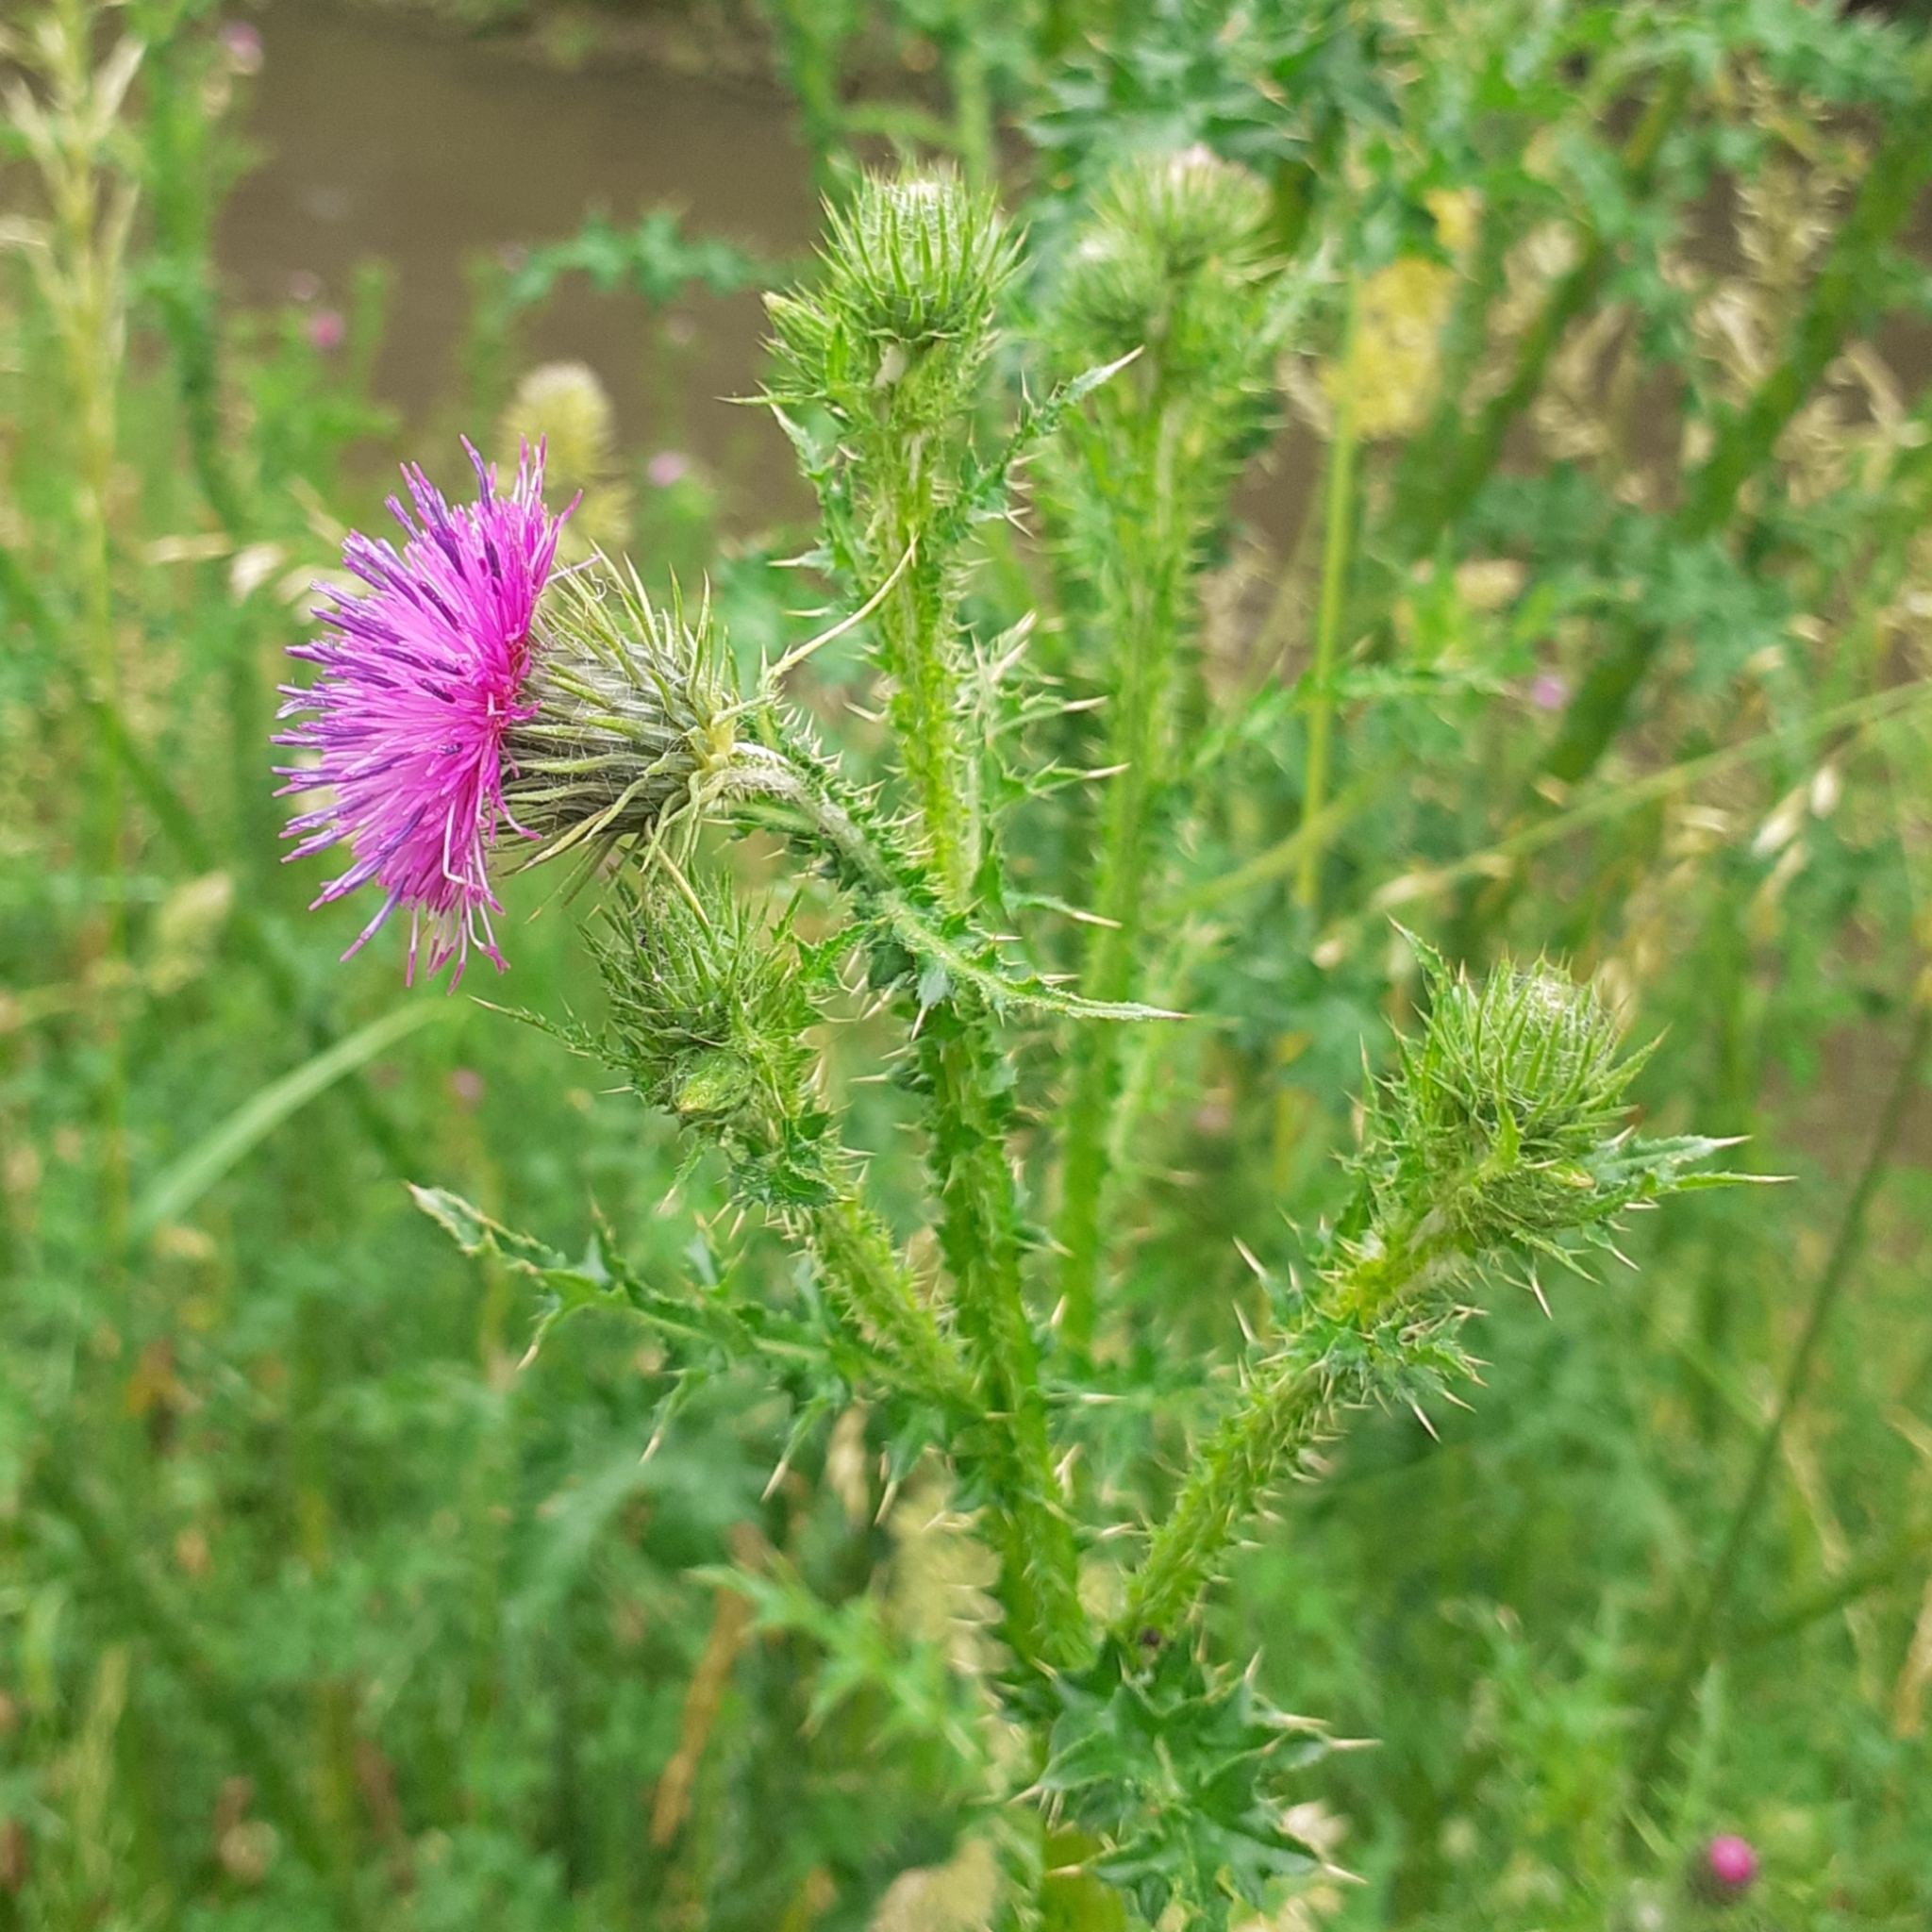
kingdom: Plantae
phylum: Tracheophyta
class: Magnoliopsida
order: Asterales
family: Asteraceae
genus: Carduus
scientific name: Carduus crispus
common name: Welted thistle
